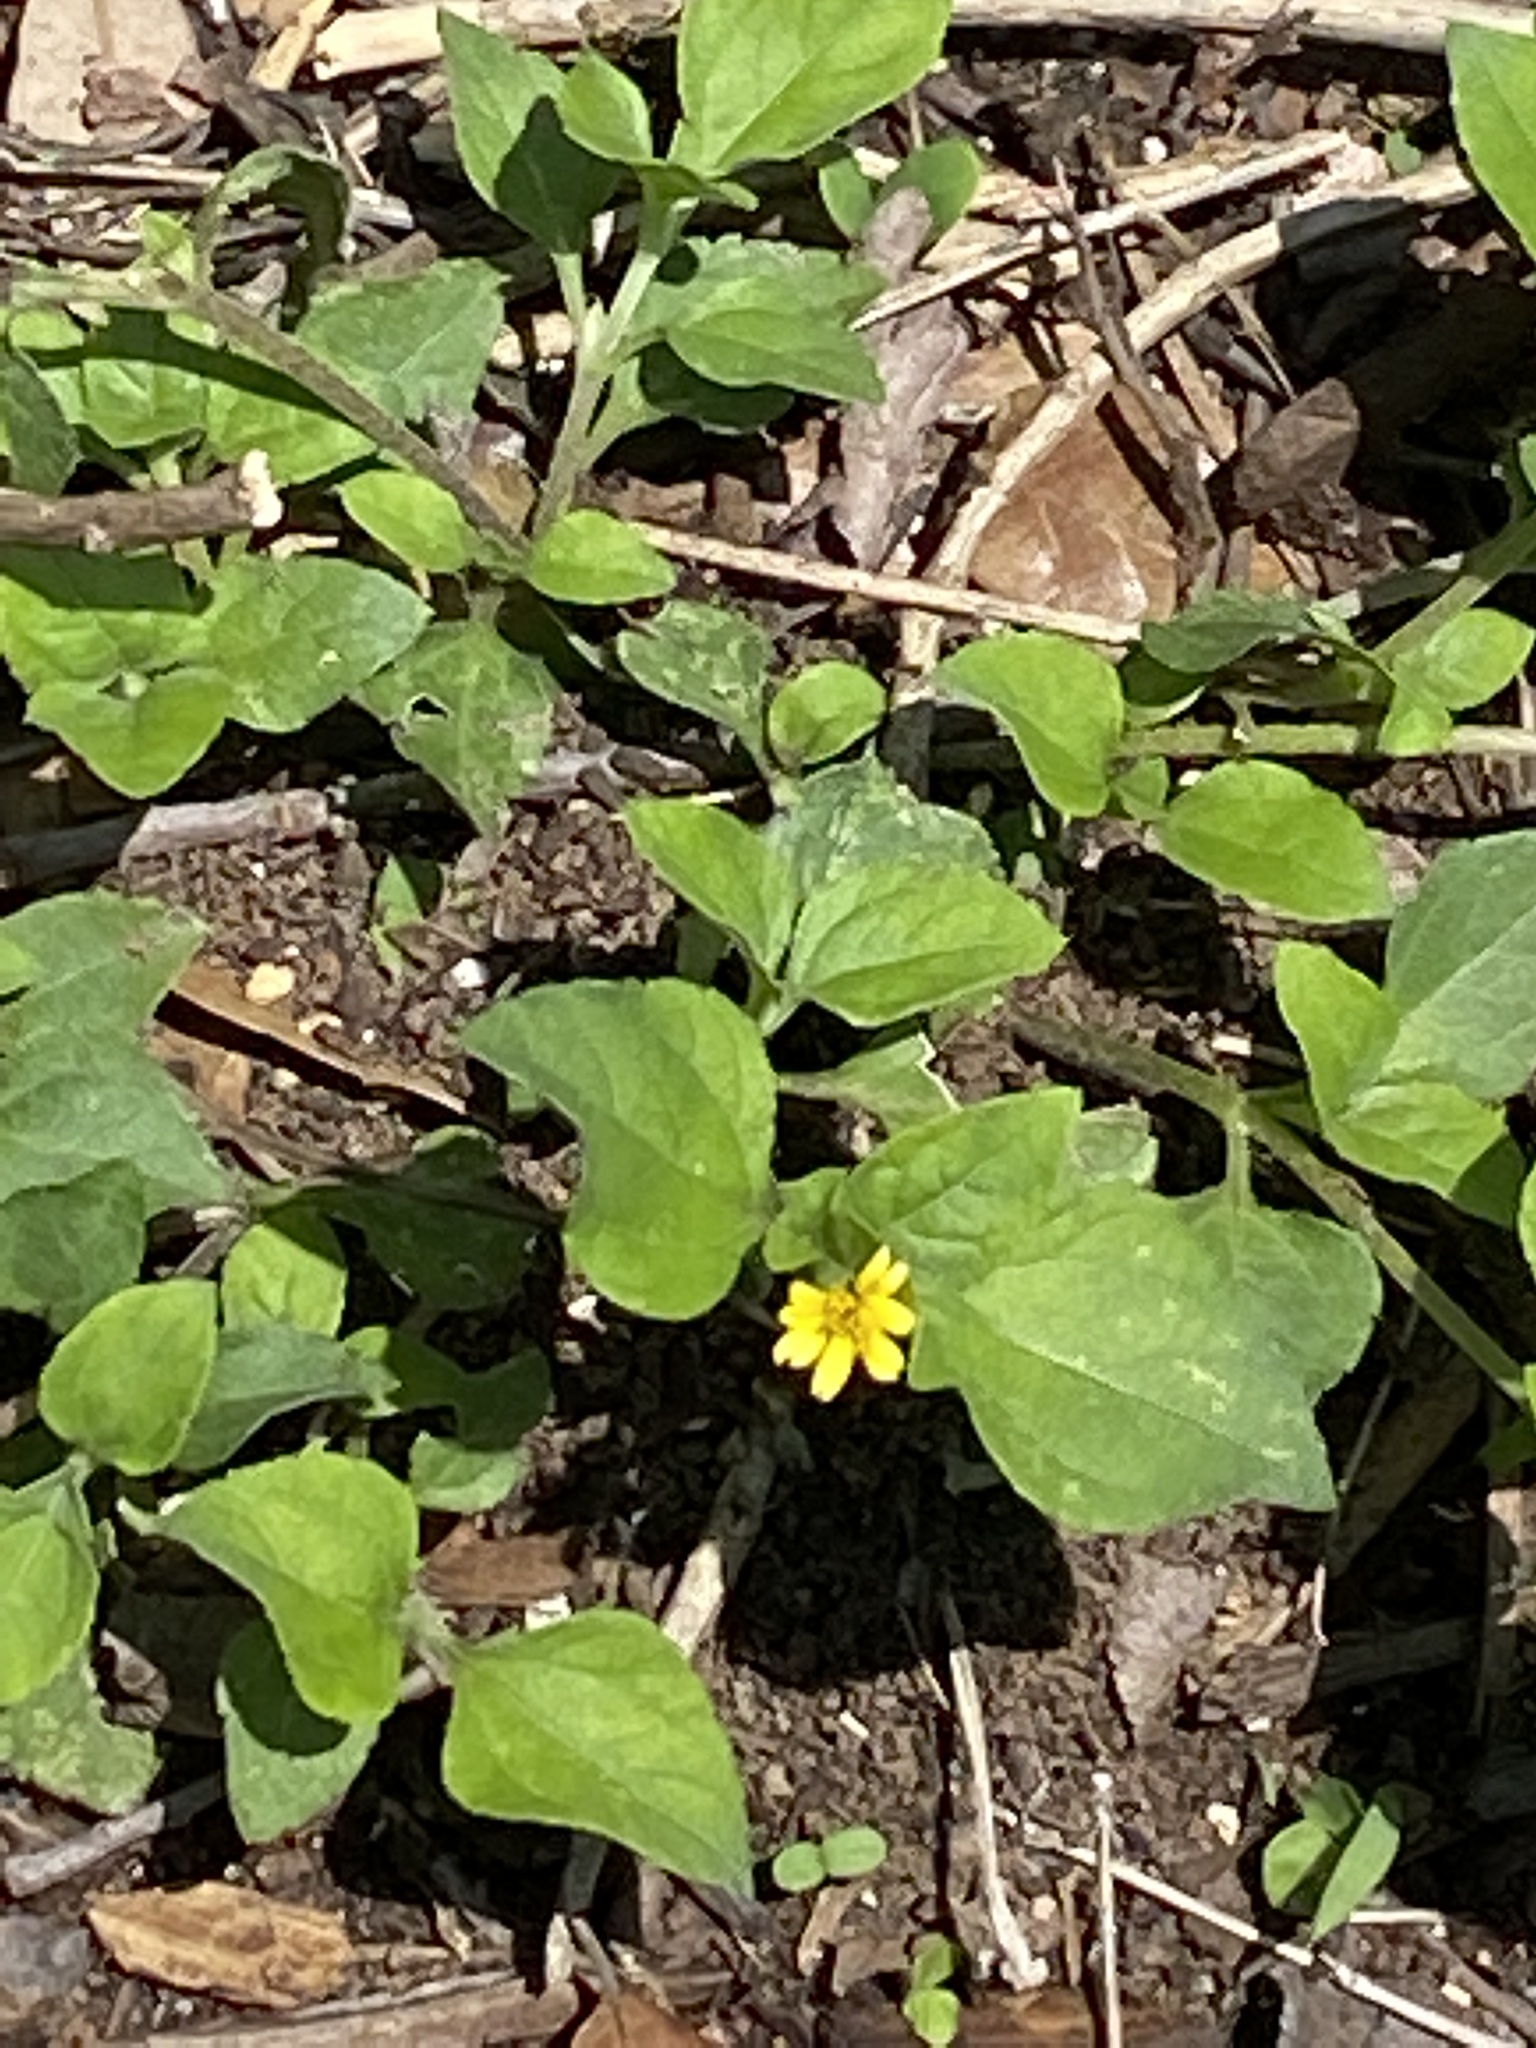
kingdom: Plantae
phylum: Tracheophyta
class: Magnoliopsida
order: Asterales
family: Asteraceae
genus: Calyptocarpus
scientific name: Calyptocarpus vialis
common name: Straggler daisy
